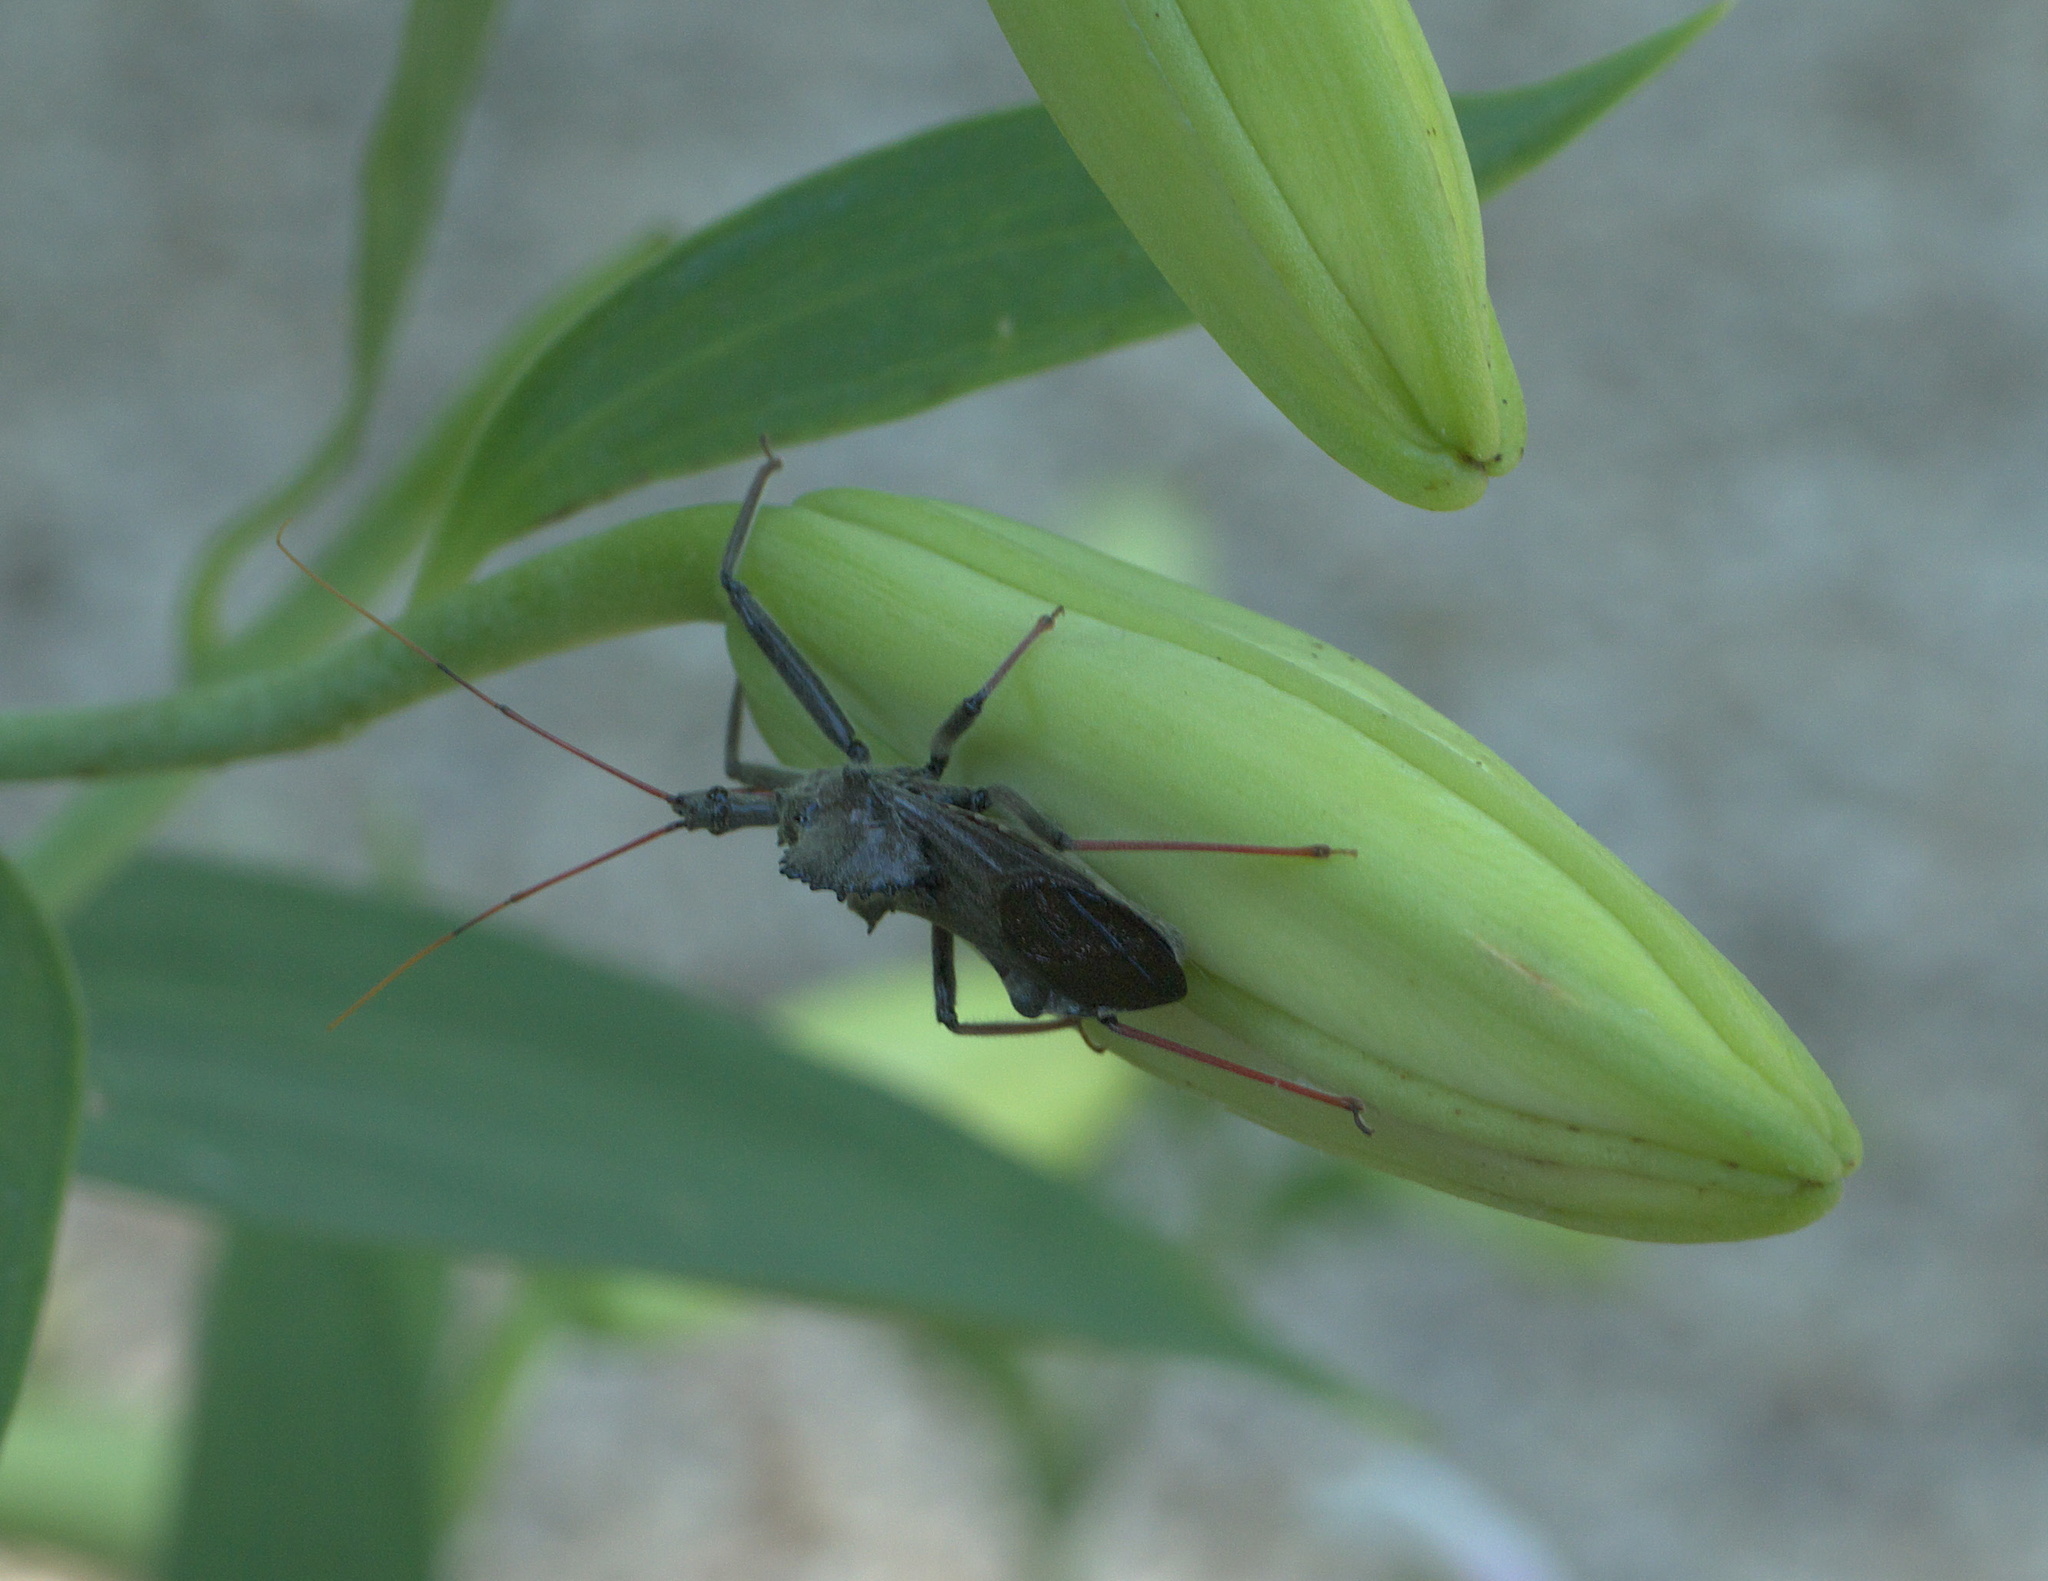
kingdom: Animalia
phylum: Arthropoda
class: Insecta
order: Hemiptera
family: Reduviidae
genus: Arilus
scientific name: Arilus cristatus
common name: North american wheel bug
